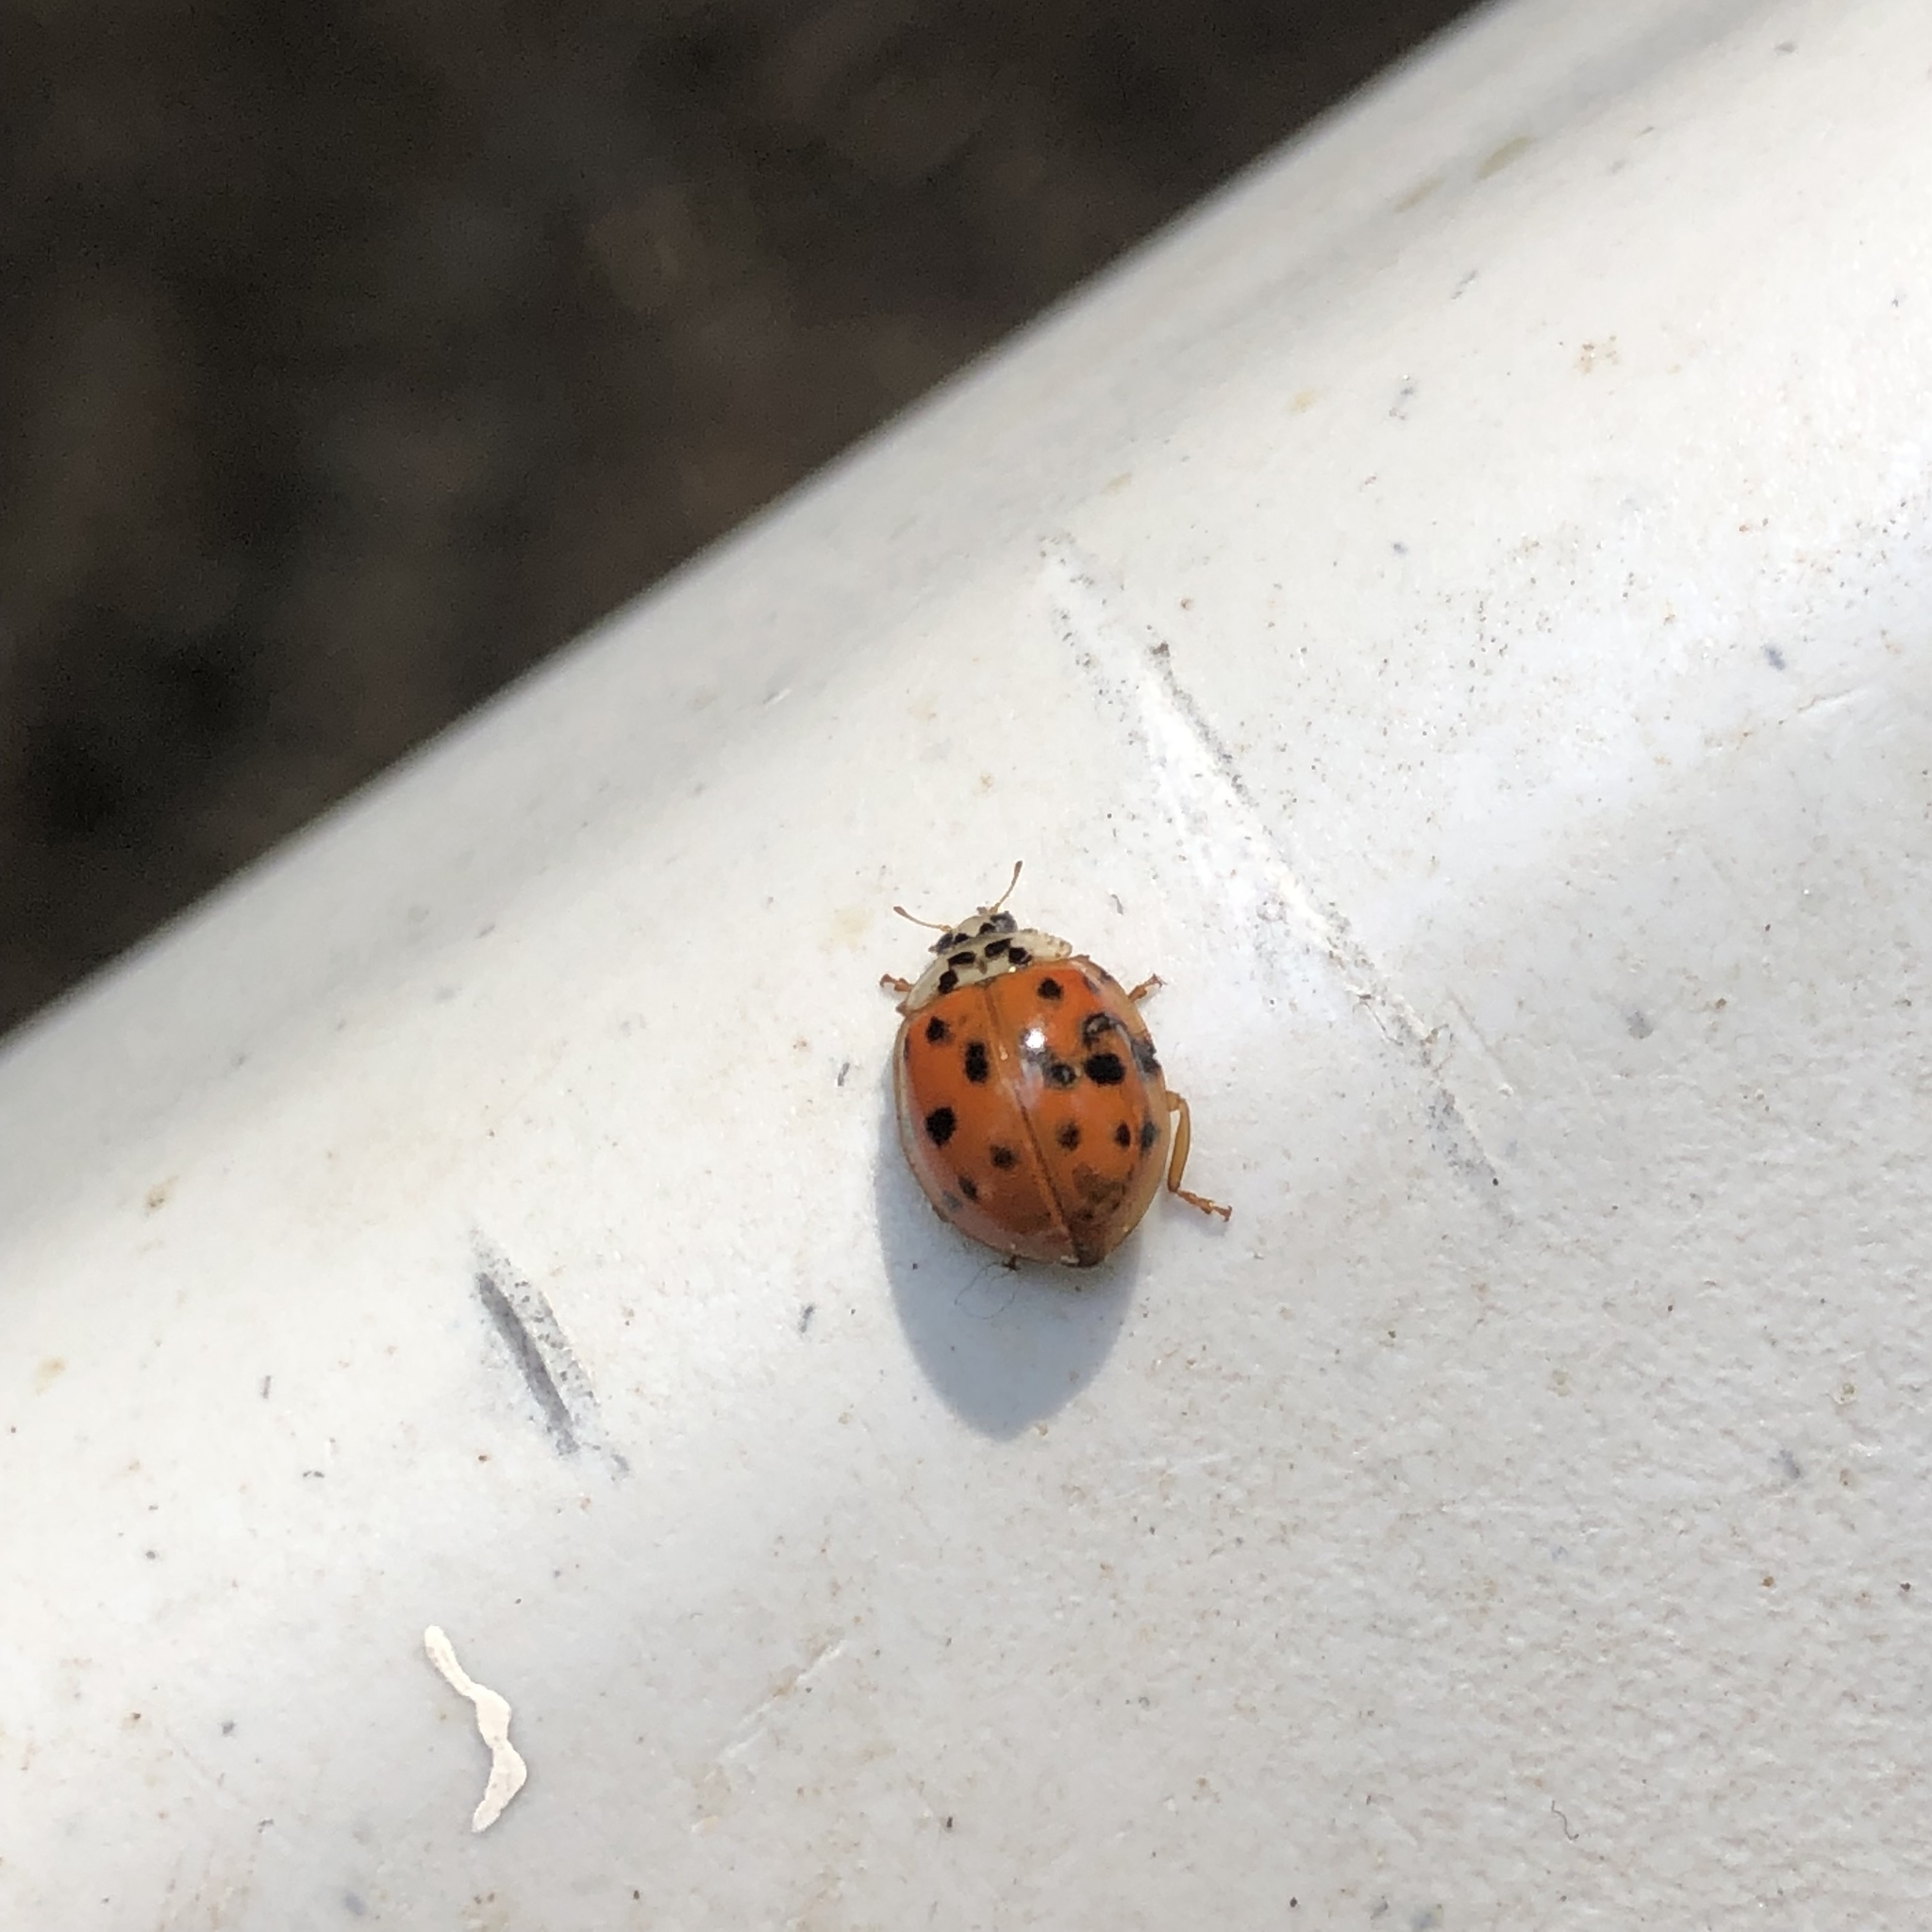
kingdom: Animalia
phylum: Arthropoda
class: Insecta
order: Coleoptera
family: Coccinellidae
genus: Harmonia
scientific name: Harmonia axyridis
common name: Harlequin ladybird
